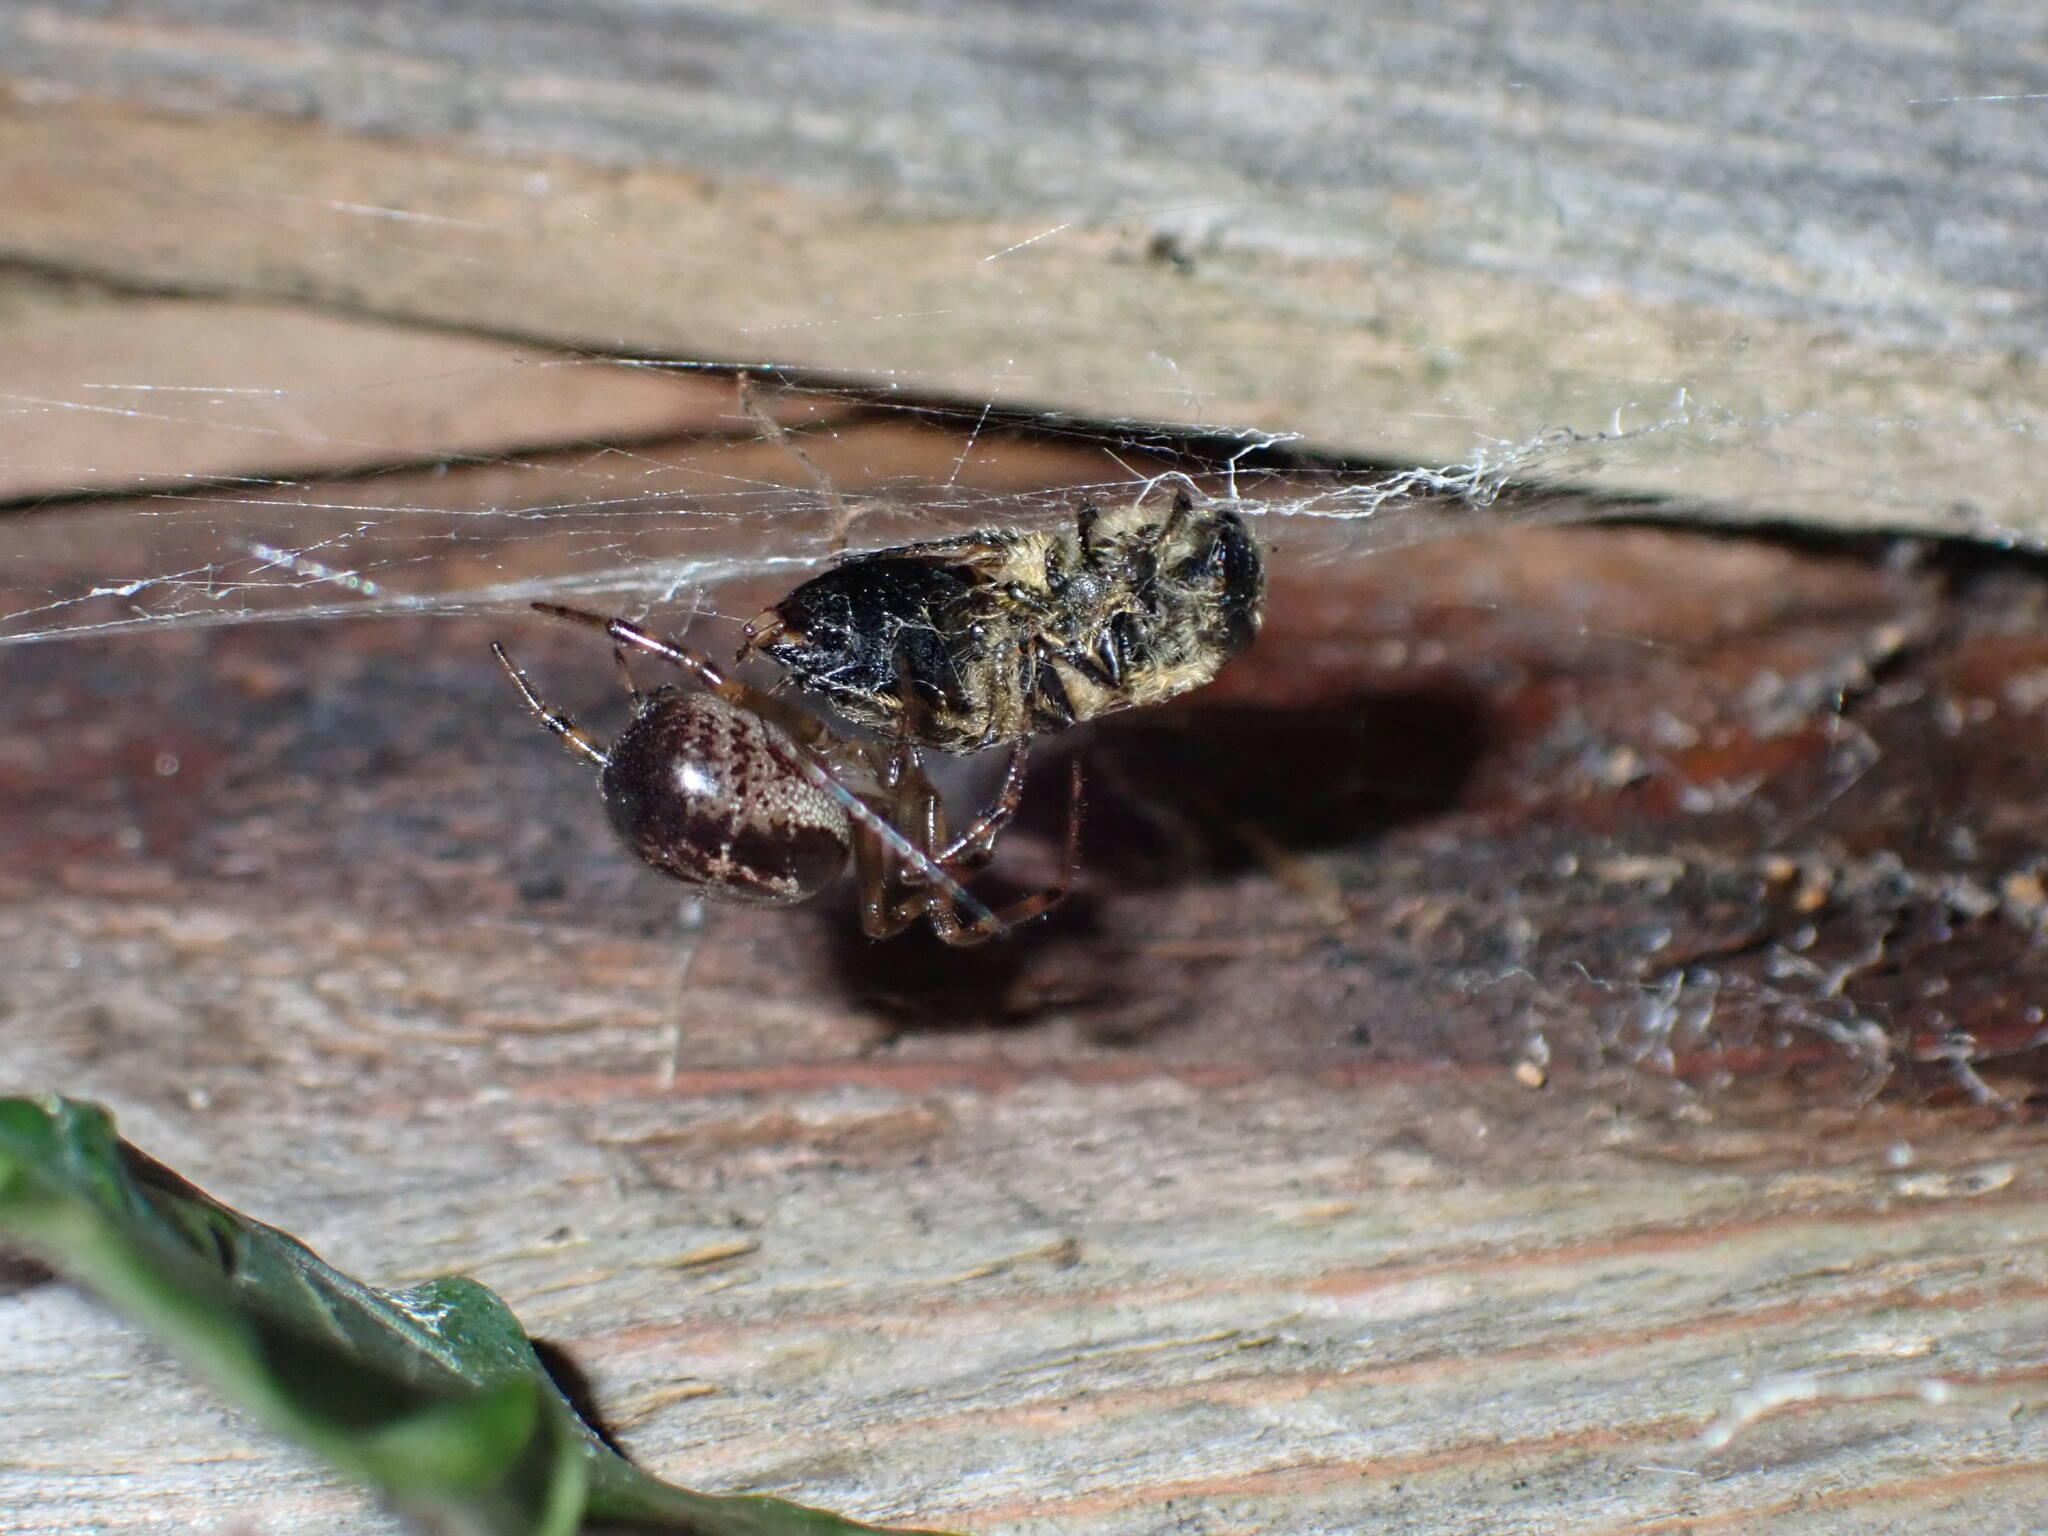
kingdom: Animalia
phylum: Arthropoda
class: Arachnida
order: Araneae
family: Theridiidae
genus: Steatoda
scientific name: Steatoda nobilis
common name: Cobweb weaver
